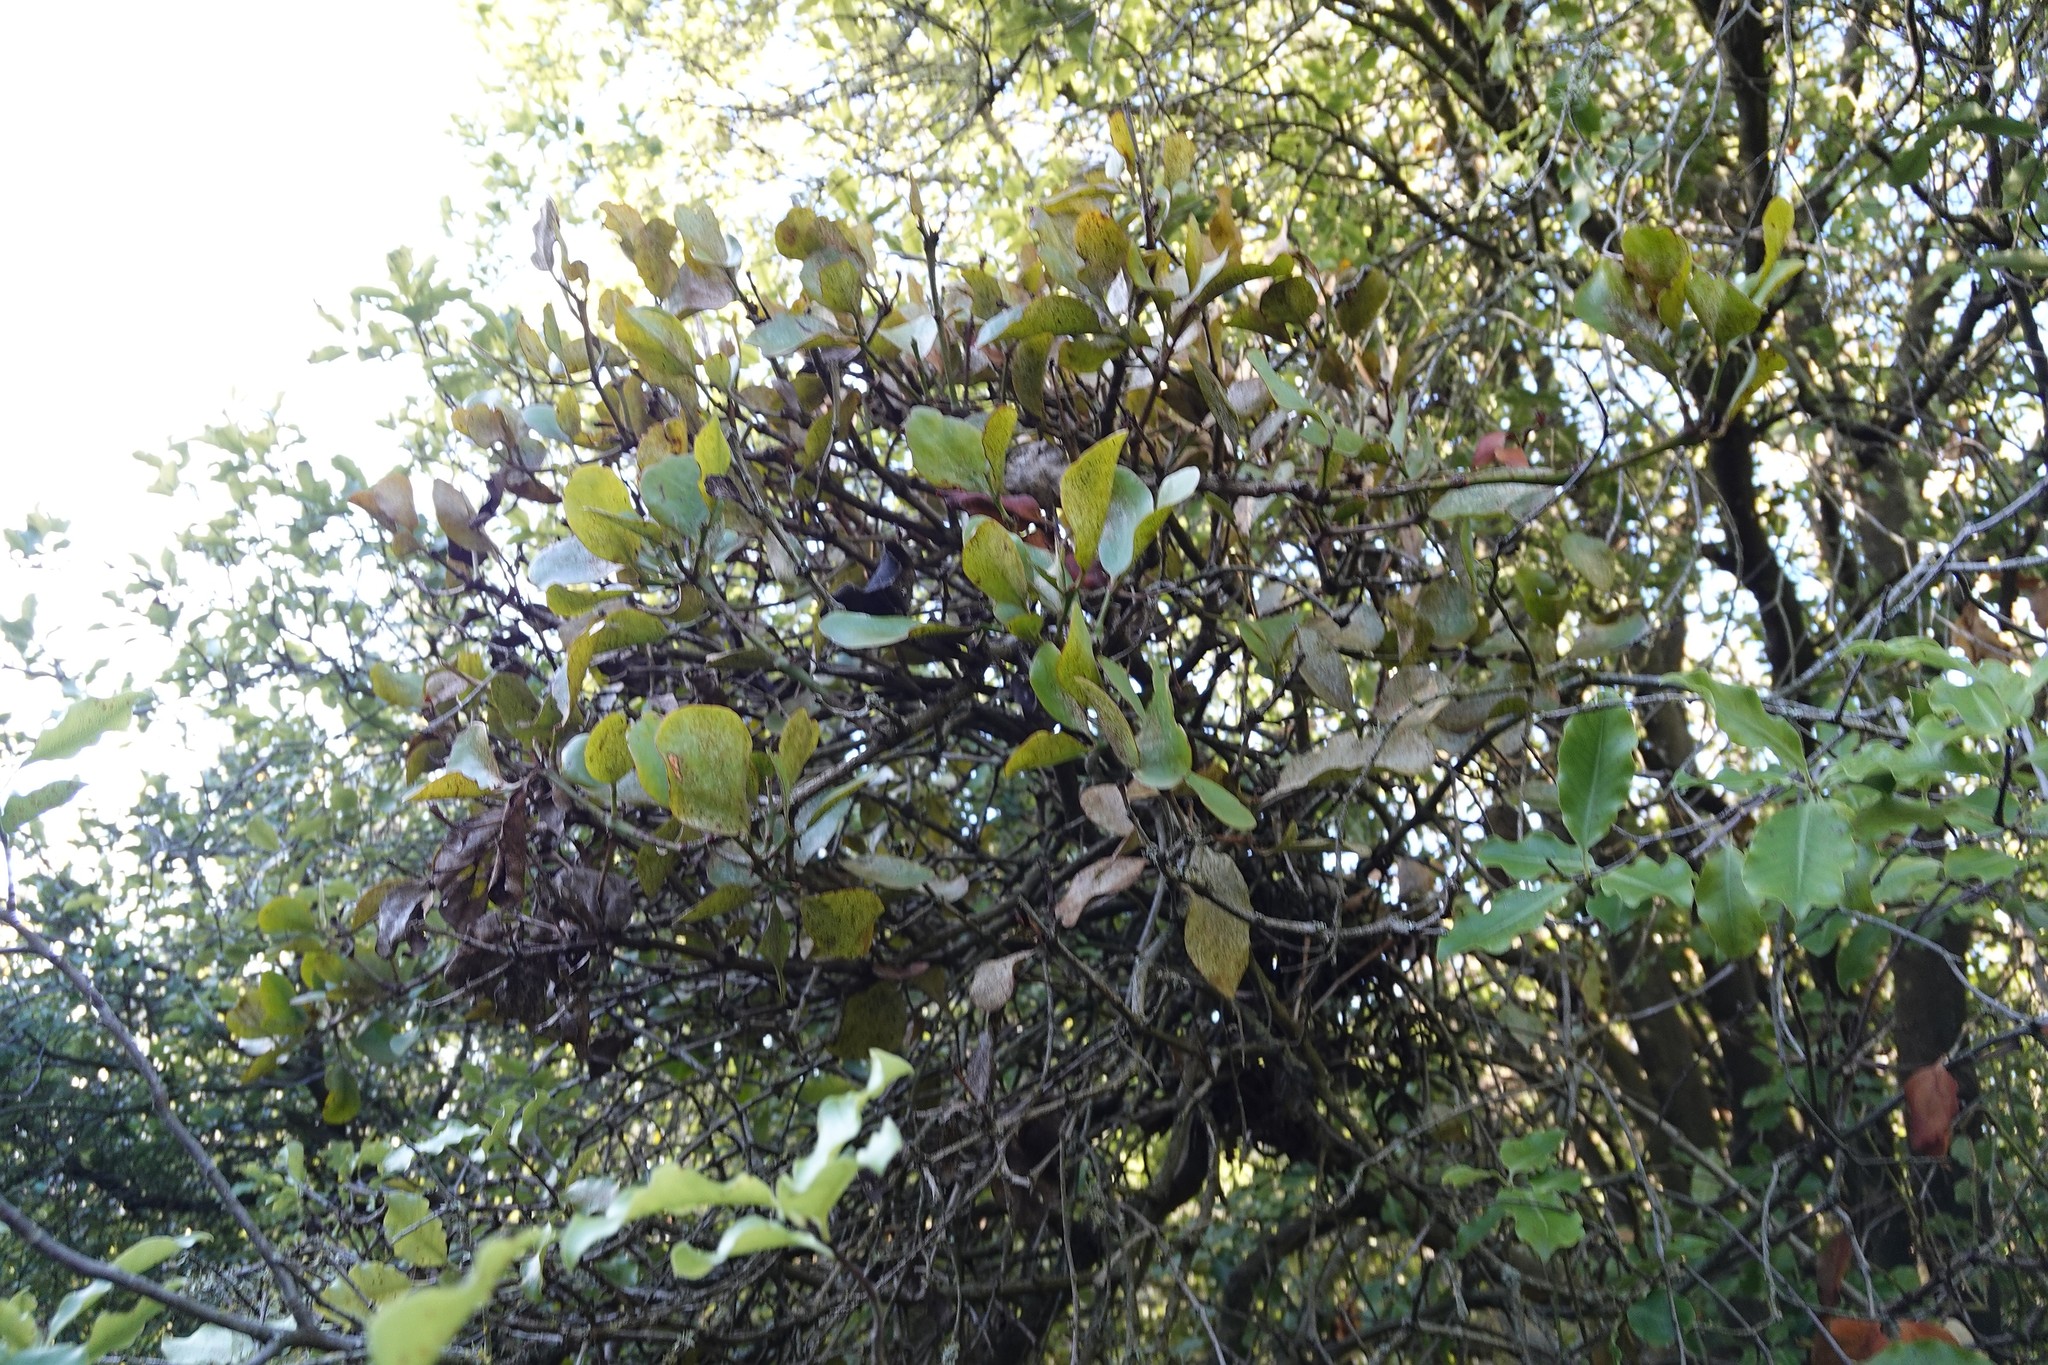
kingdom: Plantae
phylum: Tracheophyta
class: Magnoliopsida
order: Santalales
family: Loranthaceae
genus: Ileostylus
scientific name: Ileostylus micranthus
